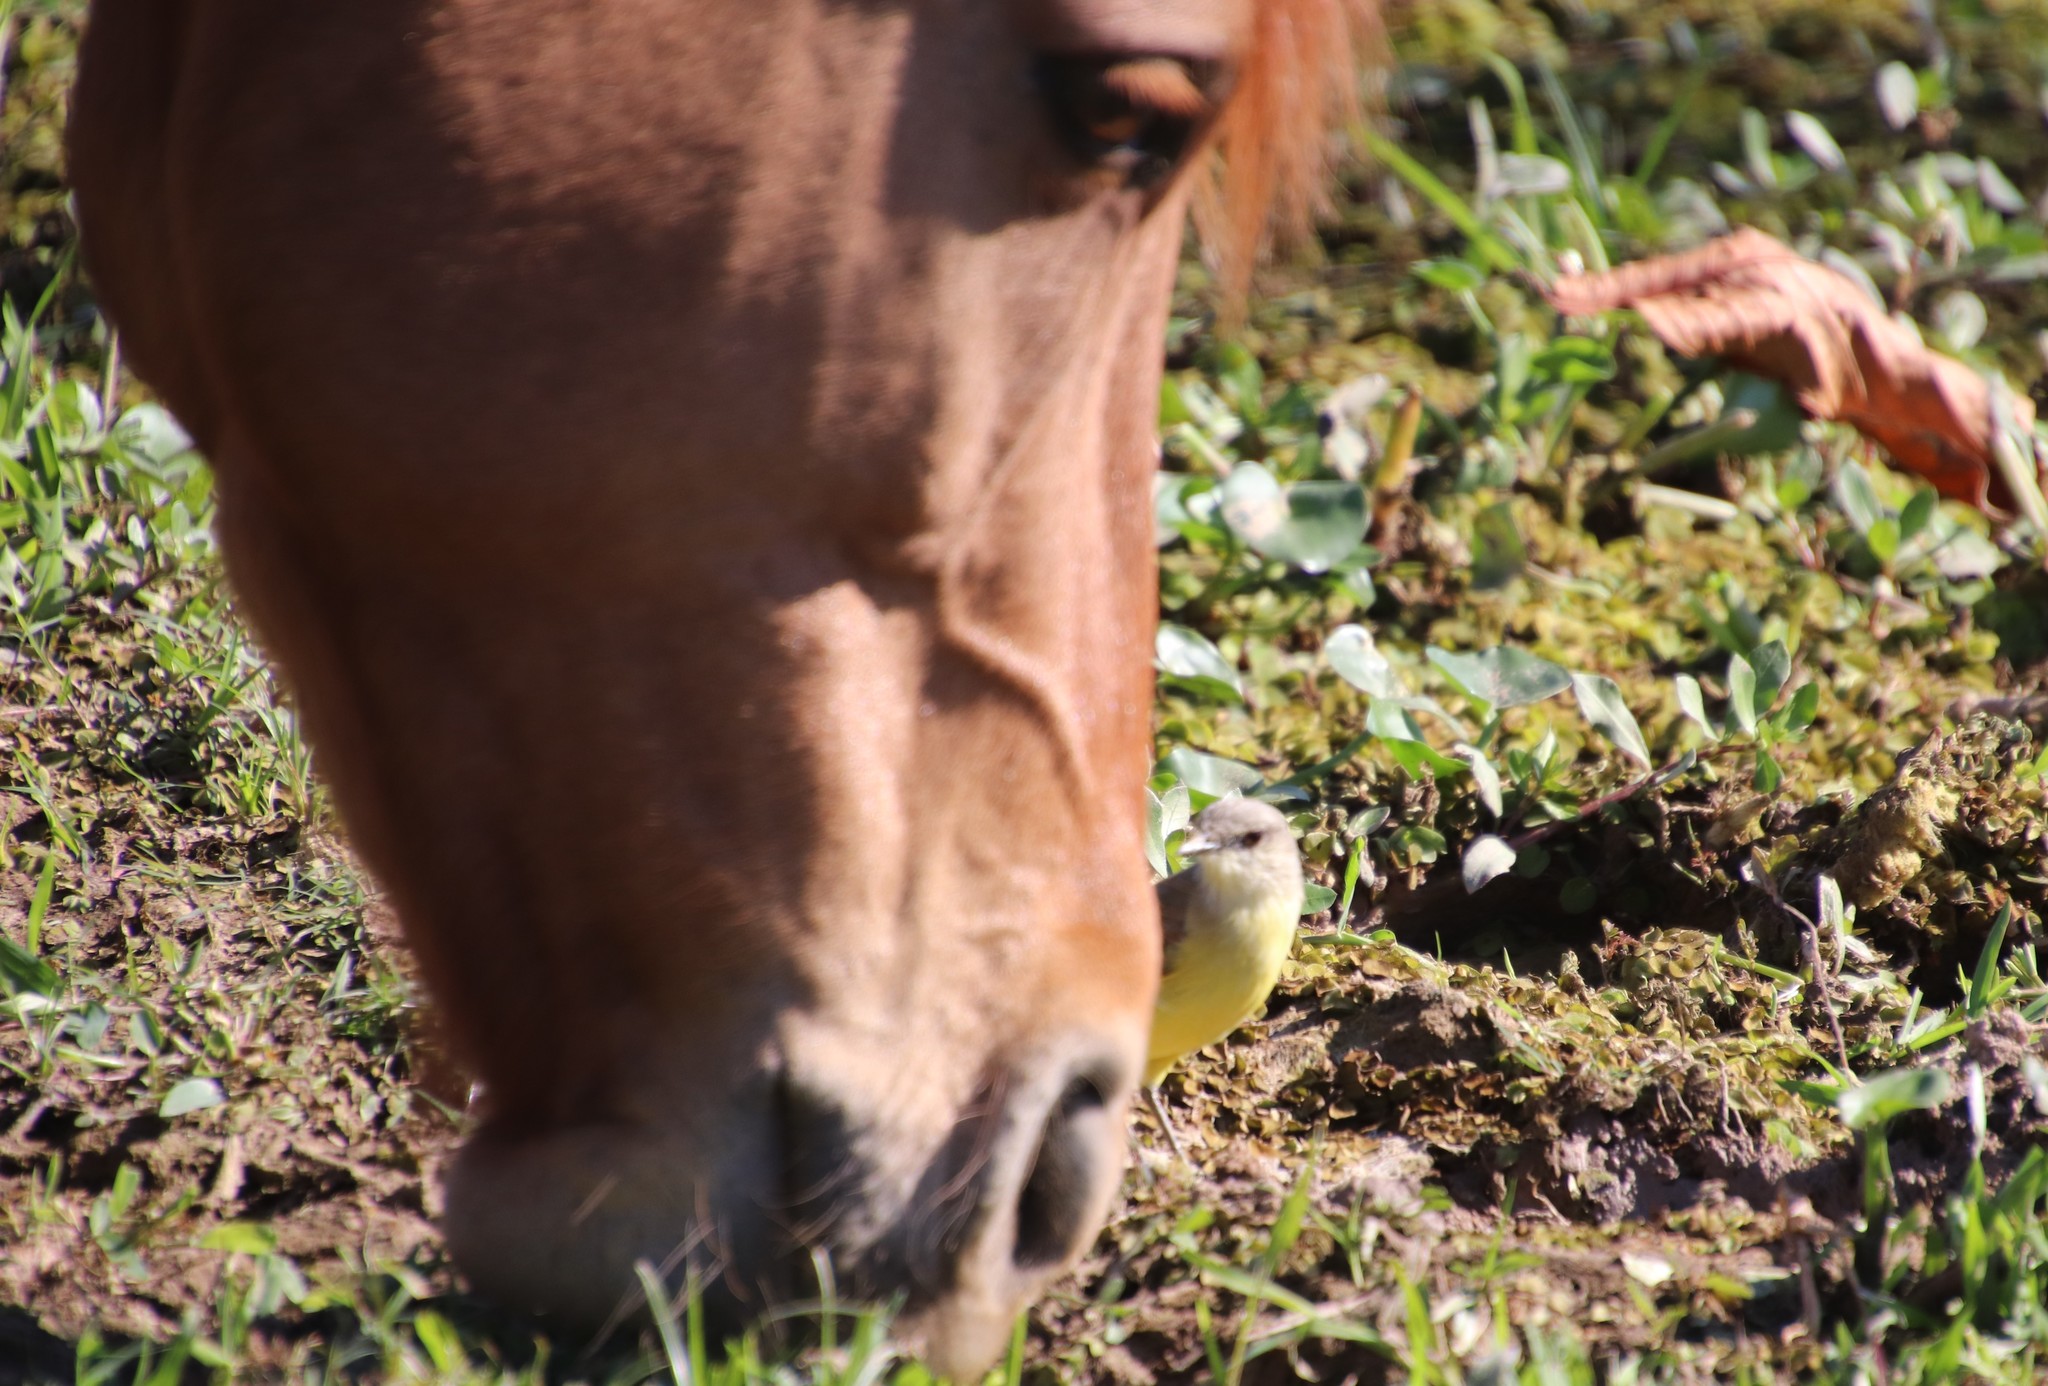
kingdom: Animalia
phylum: Chordata
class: Aves
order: Passeriformes
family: Tyrannidae
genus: Machetornis
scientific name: Machetornis rixosa
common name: Cattle tyrant
